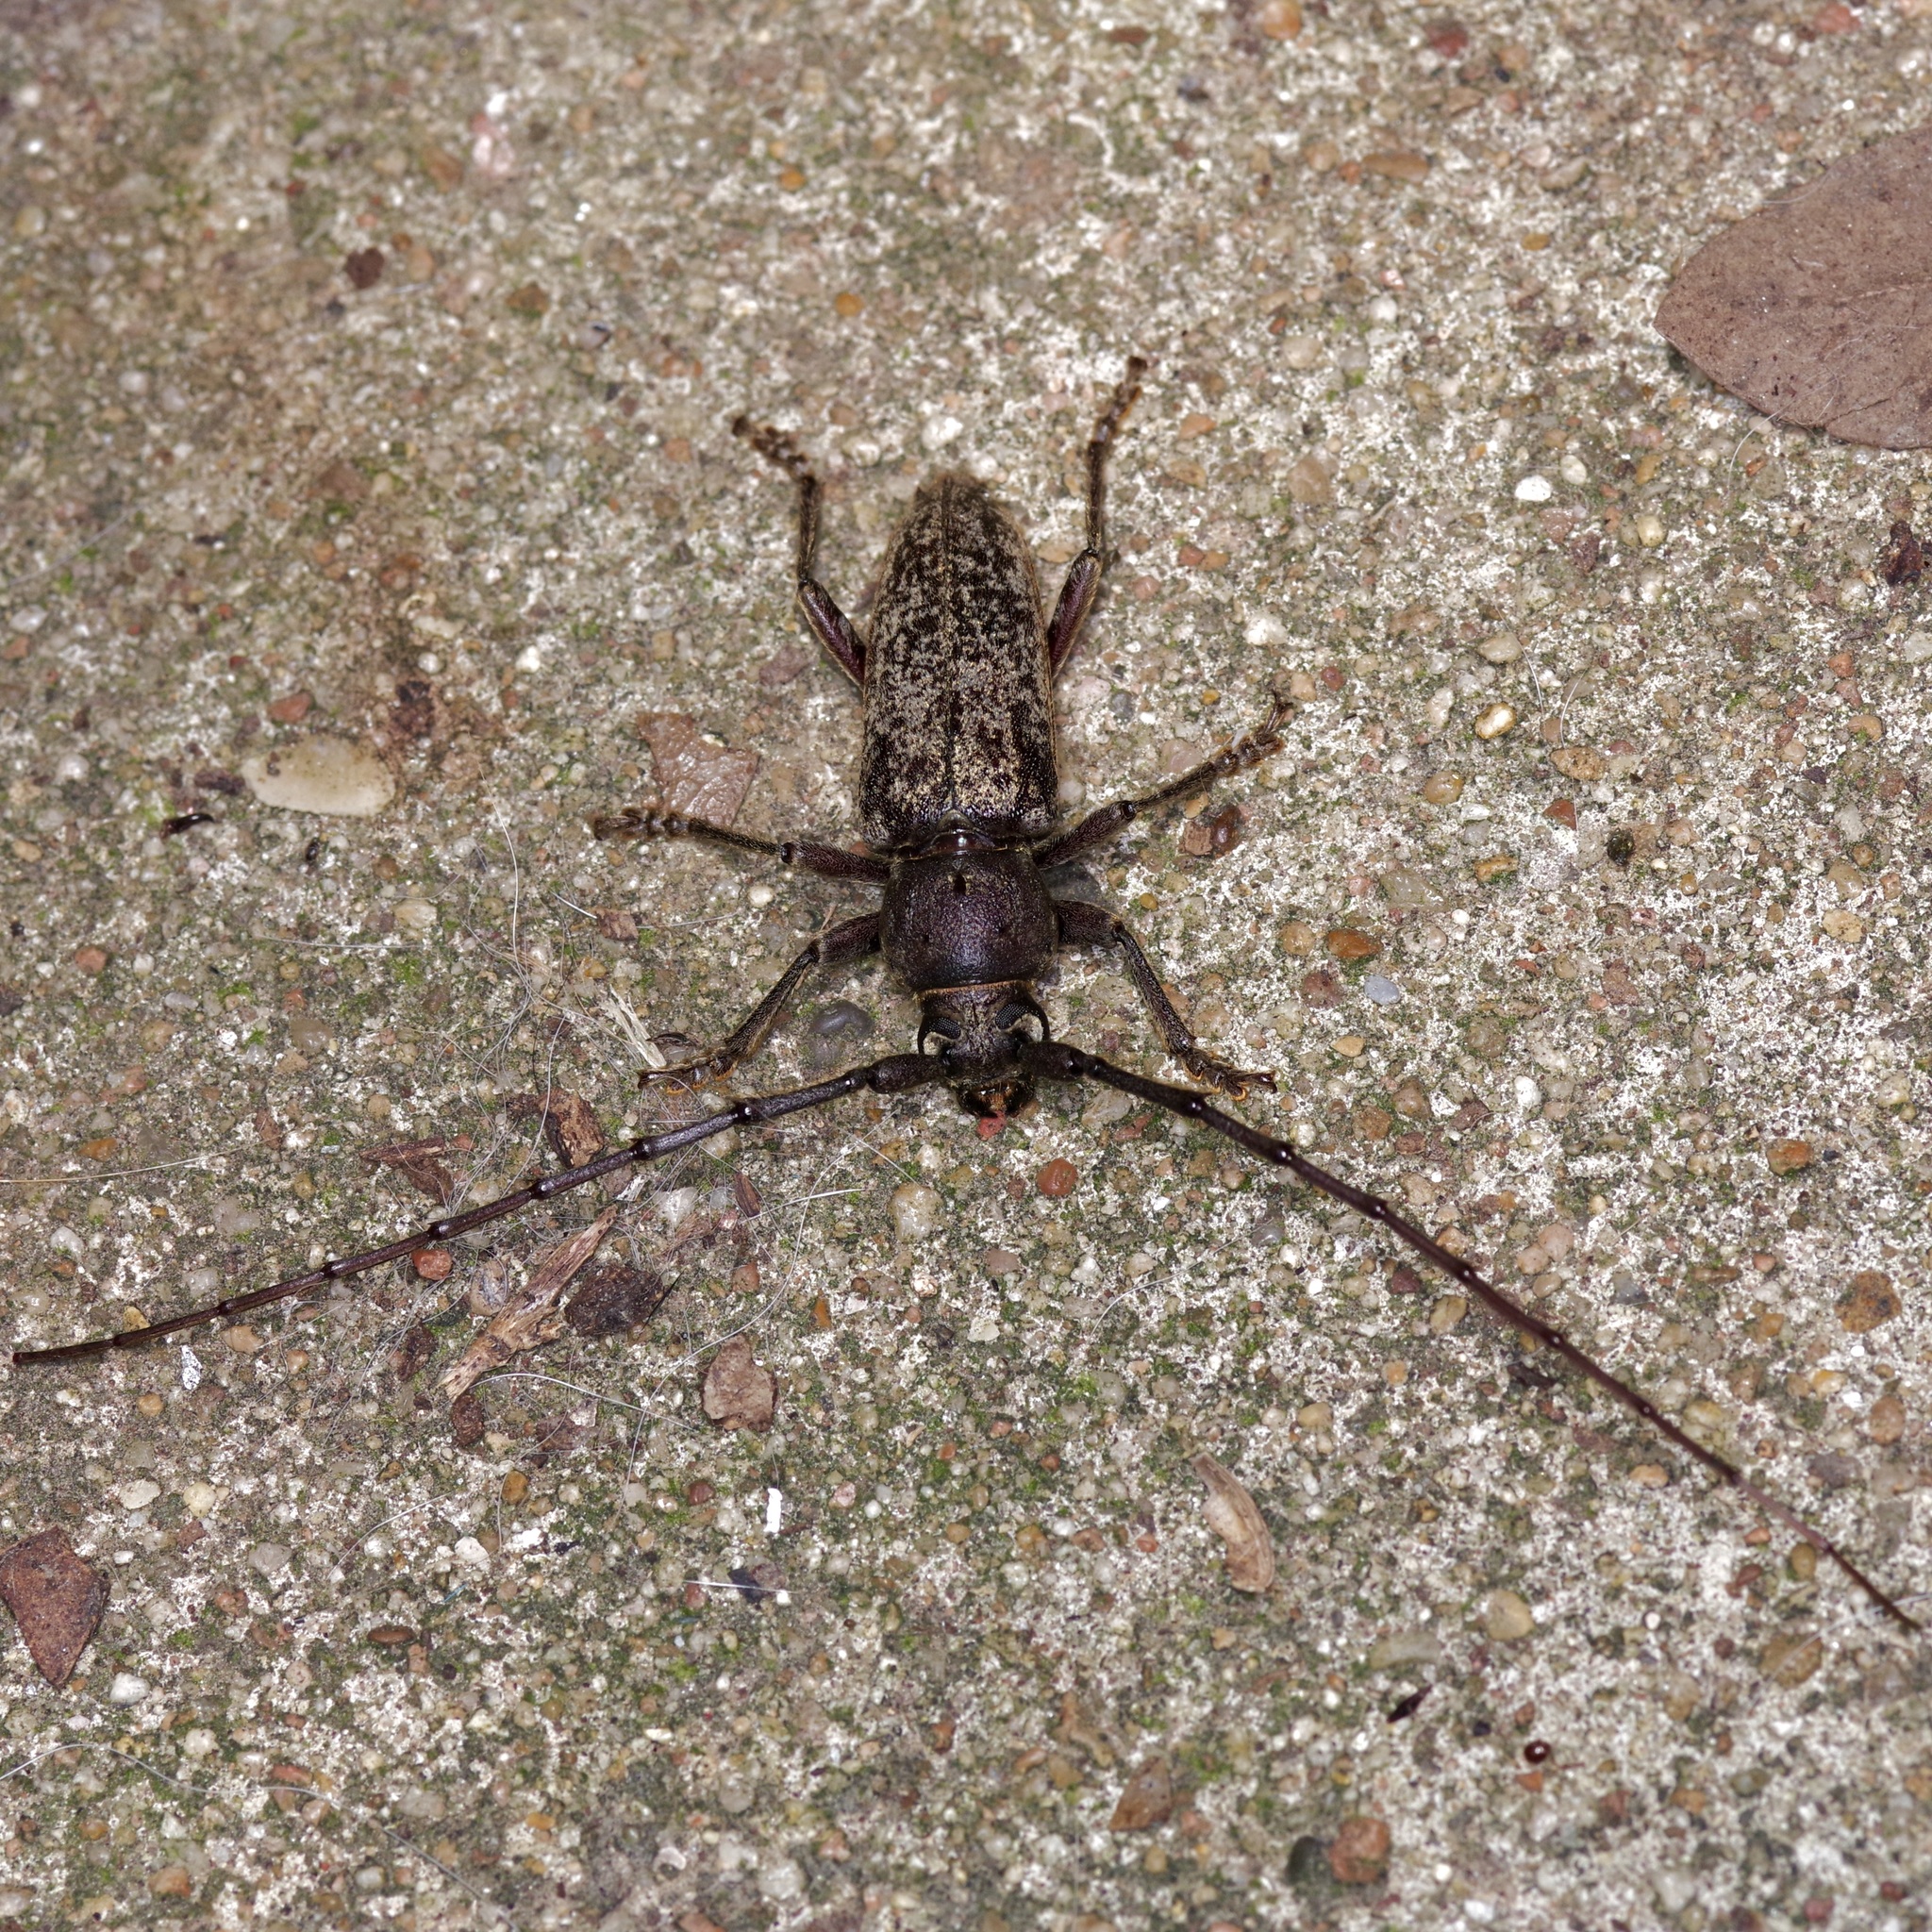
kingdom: Animalia
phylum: Arthropoda
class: Insecta
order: Coleoptera
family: Cerambycidae
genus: Enaphalodes
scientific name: Enaphalodes atomarius
